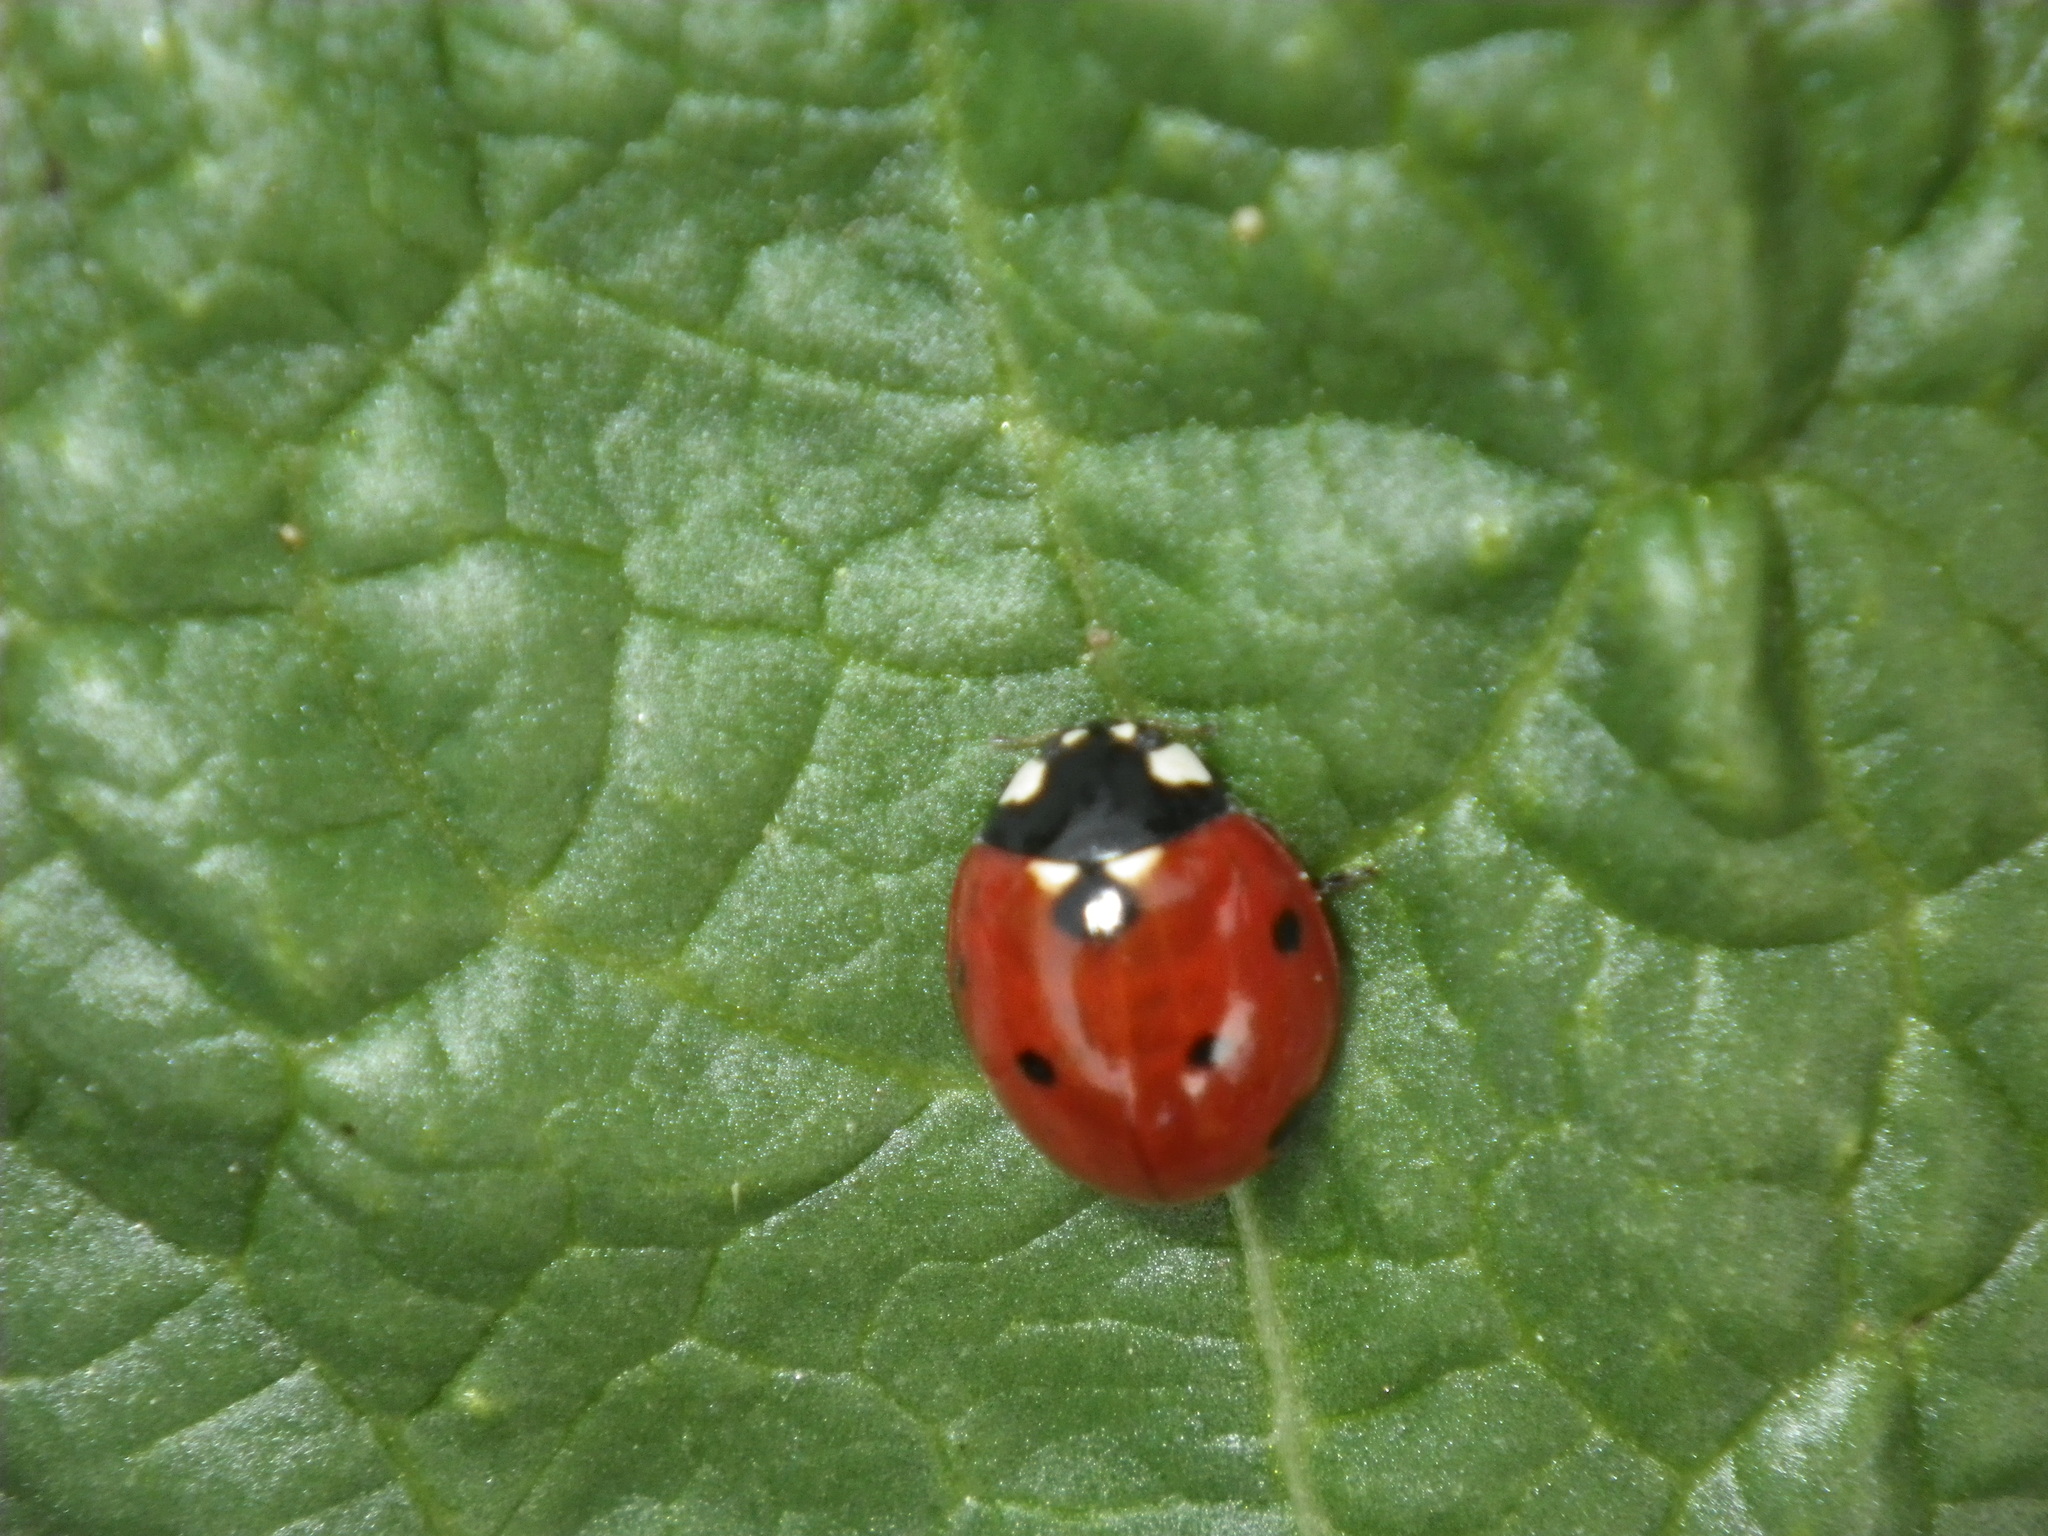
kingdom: Animalia
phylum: Arthropoda
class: Insecta
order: Coleoptera
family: Coccinellidae
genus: Coccinella
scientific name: Coccinella septempunctata
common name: Sevenspotted lady beetle
